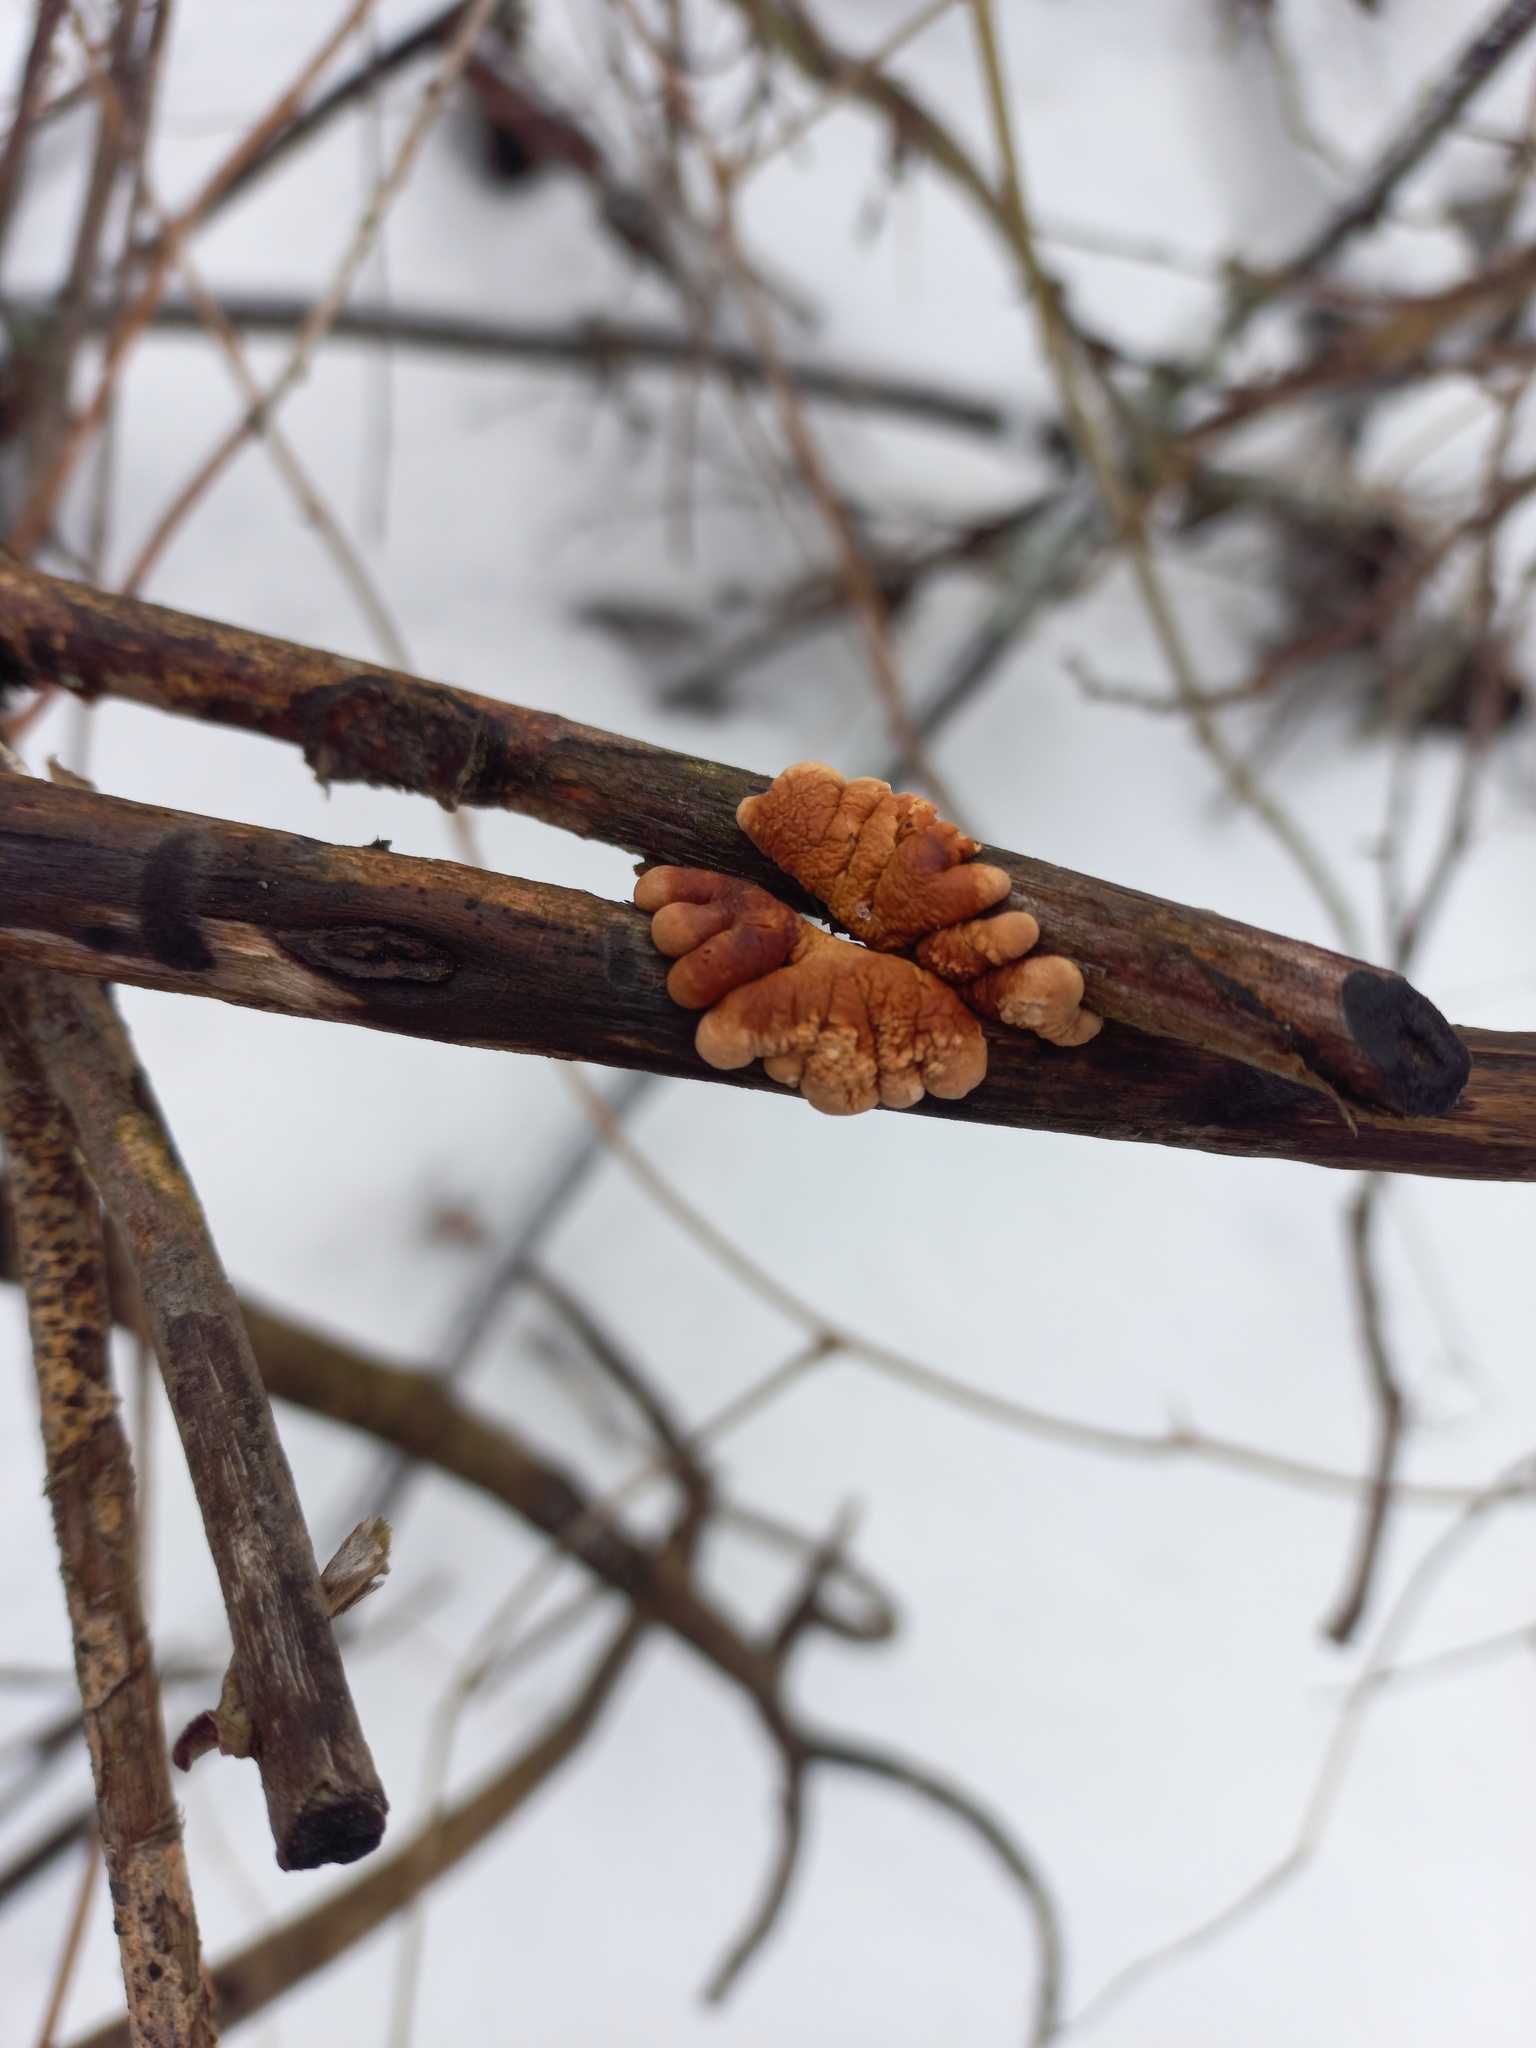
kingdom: Fungi
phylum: Ascomycota
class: Sordariomycetes
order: Hypocreales
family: Hypocreaceae
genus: Hypocreopsis
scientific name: Hypocreopsis lichenoides
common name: Willow gloves
